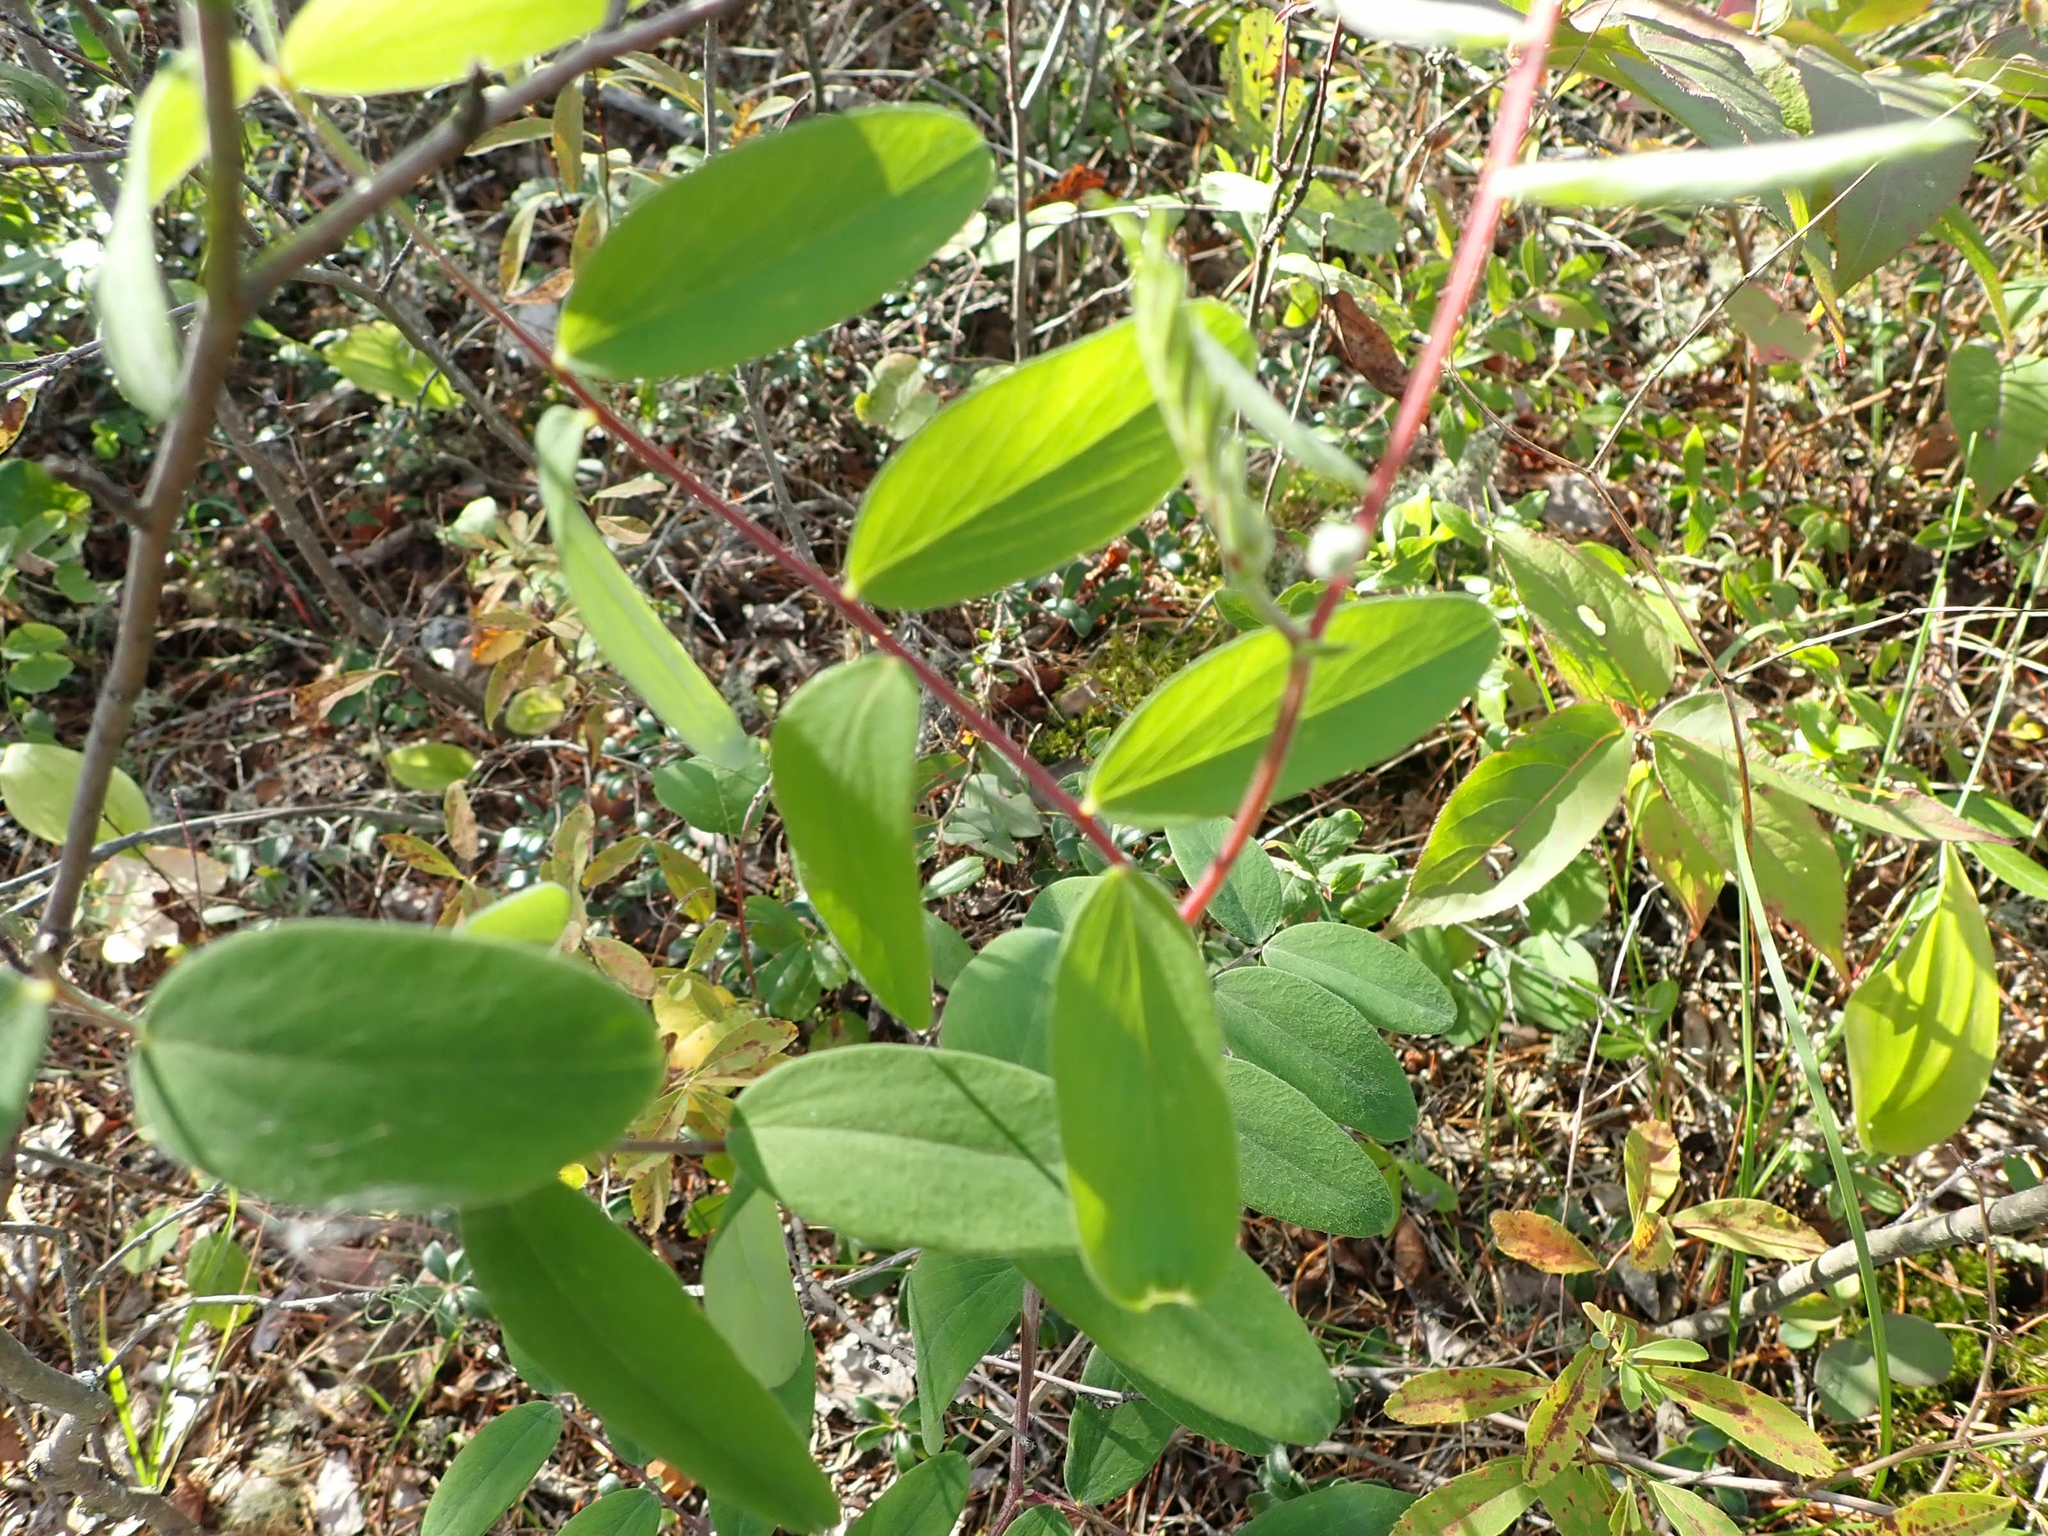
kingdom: Plantae
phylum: Tracheophyta
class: Magnoliopsida
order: Fabales
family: Fabaceae
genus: Lathyrus
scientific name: Lathyrus venosus
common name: Forest-pea
